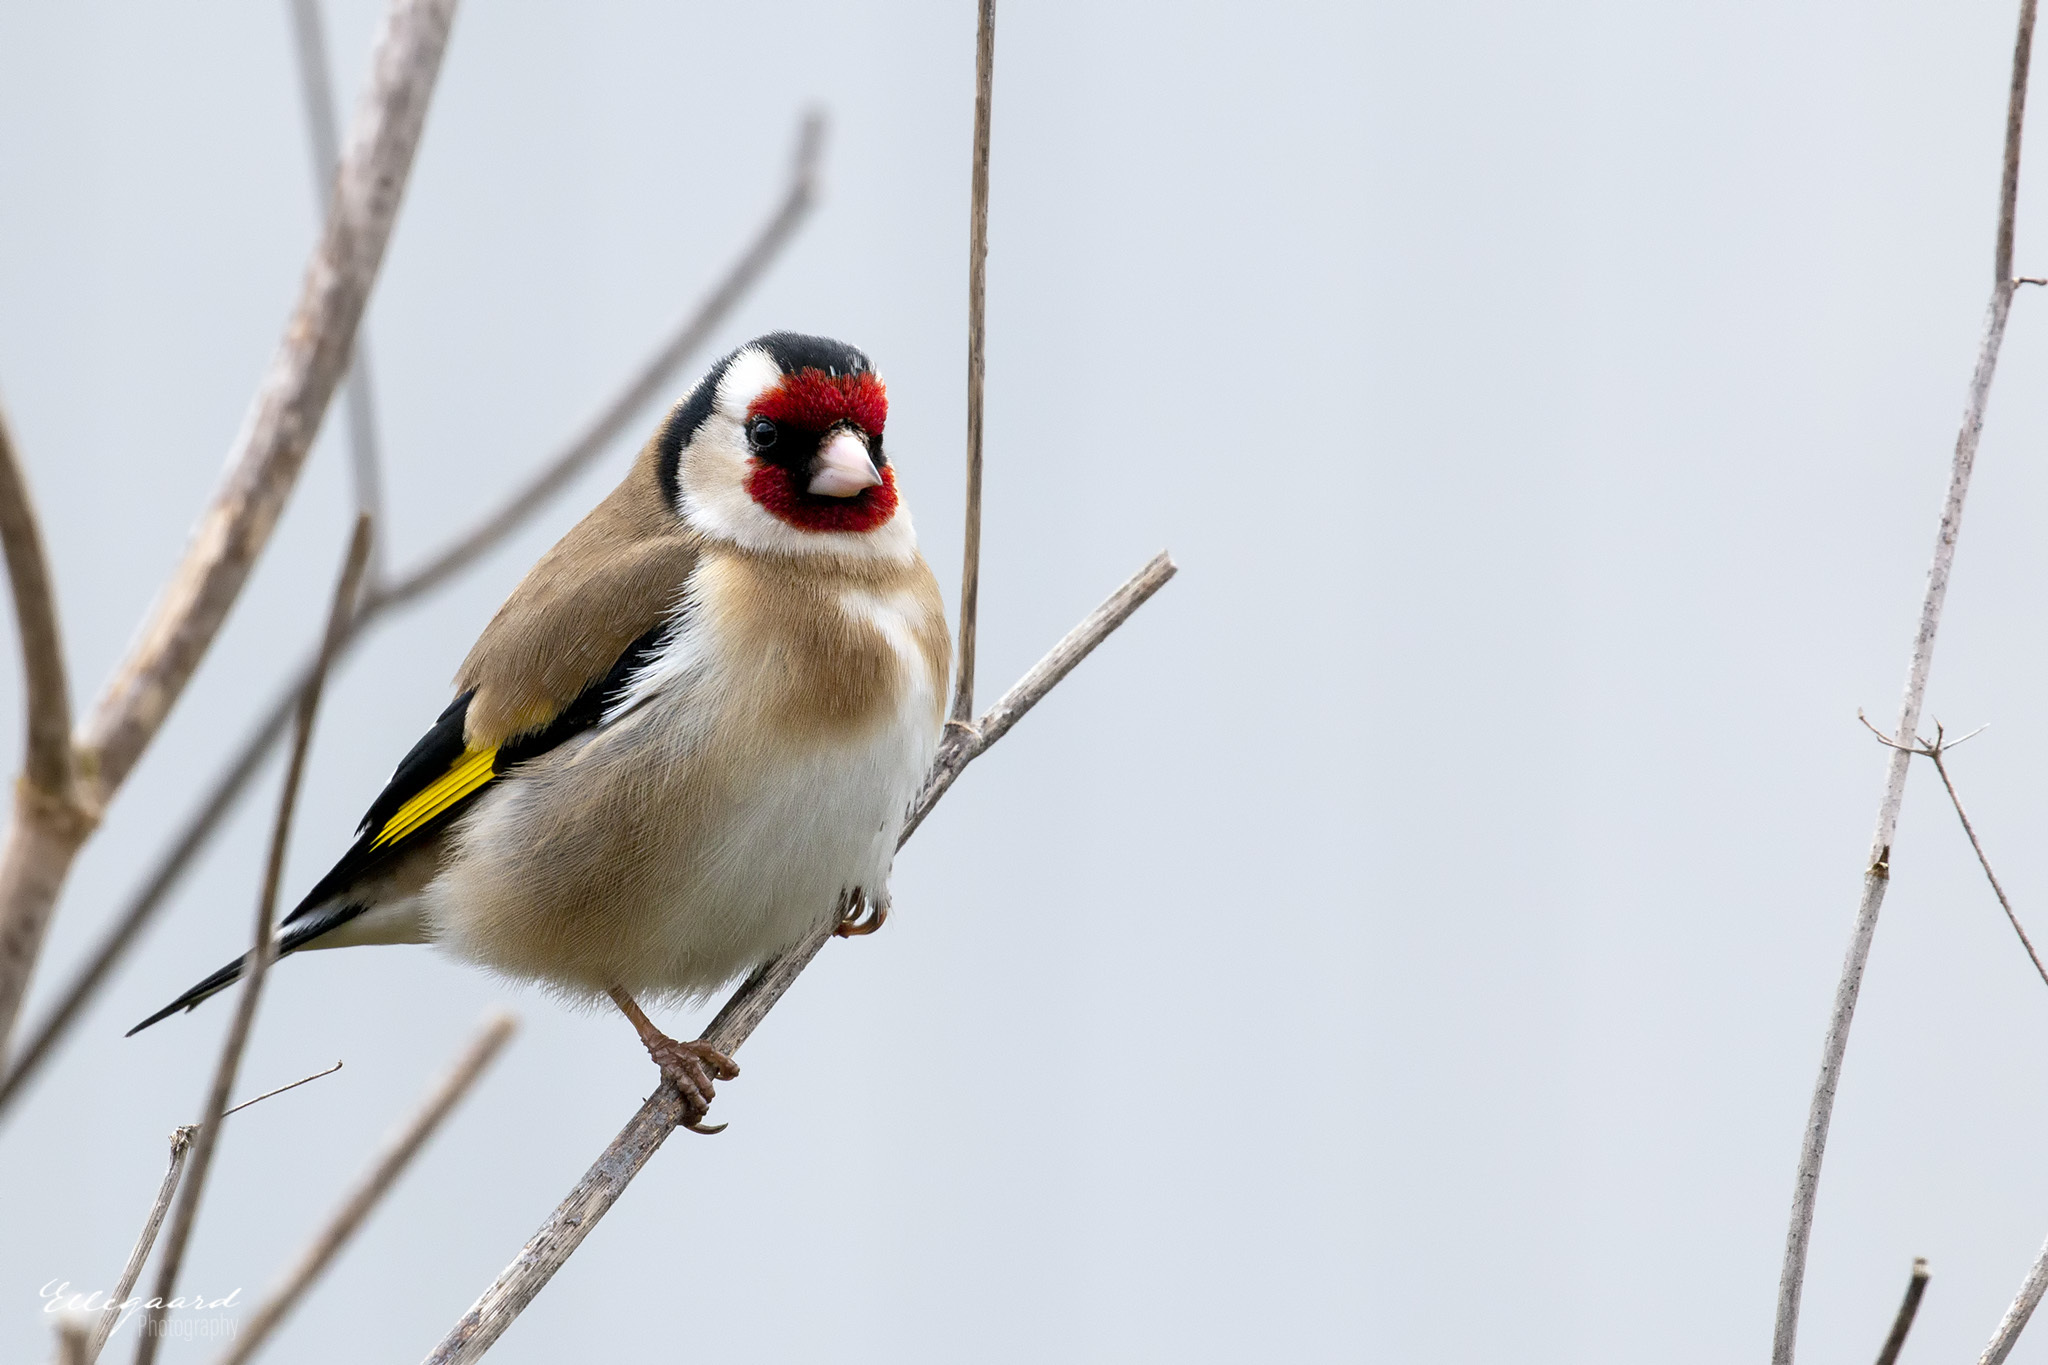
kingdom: Animalia
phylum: Chordata
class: Aves
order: Passeriformes
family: Fringillidae
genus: Carduelis
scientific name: Carduelis carduelis
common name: European goldfinch
